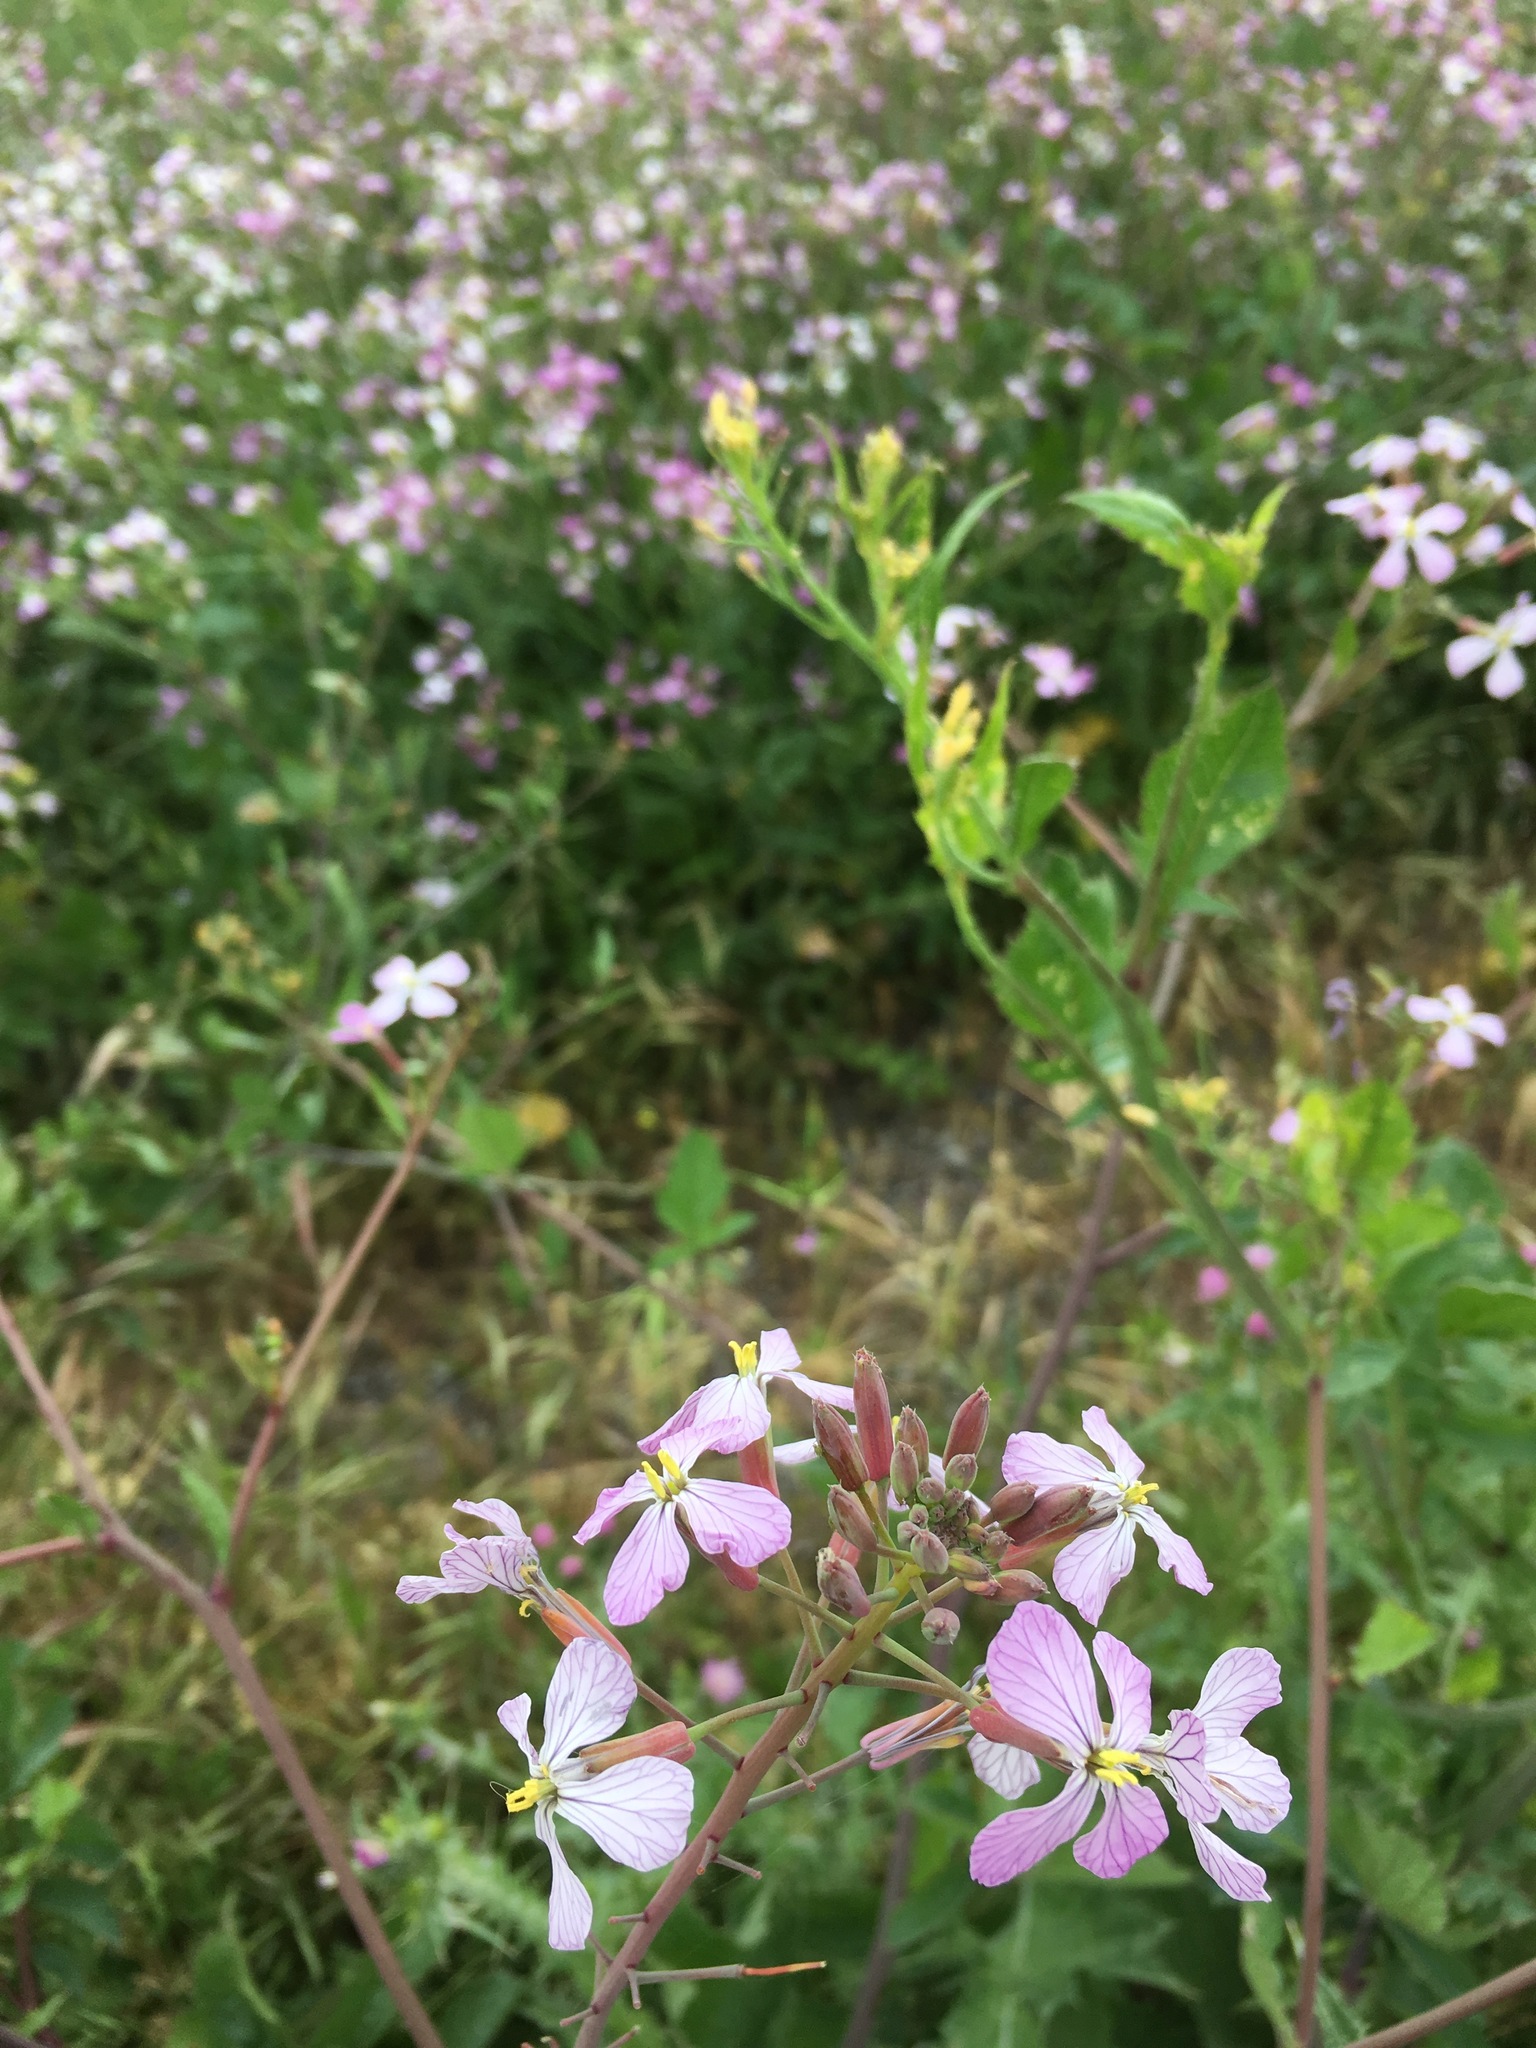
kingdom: Plantae
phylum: Tracheophyta
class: Magnoliopsida
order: Brassicales
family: Brassicaceae
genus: Raphanus
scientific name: Raphanus sativus
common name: Cultivated radish
